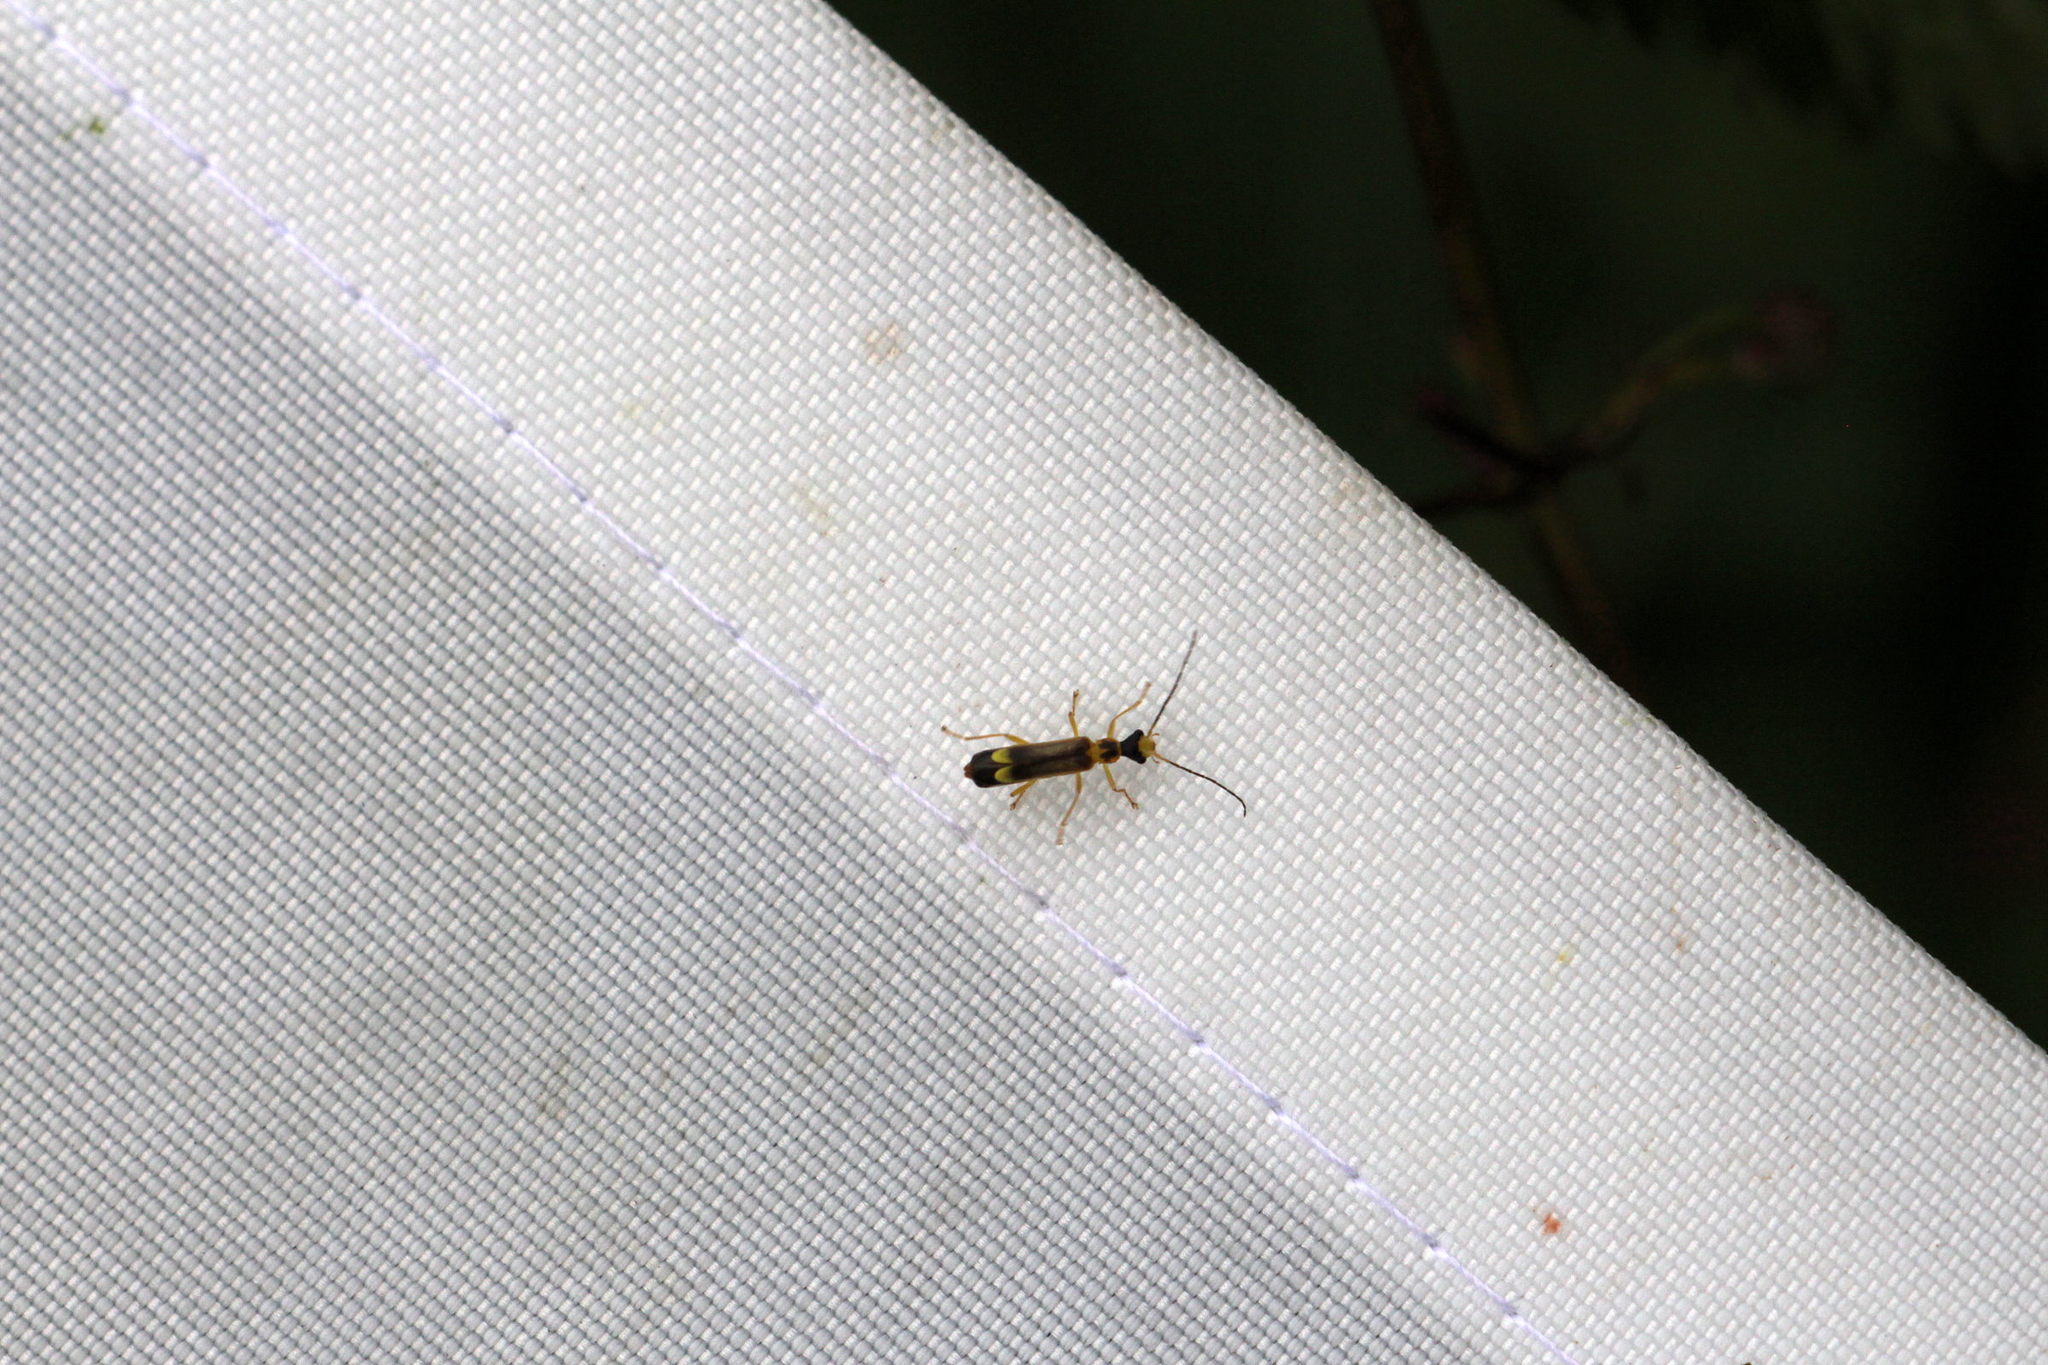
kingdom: Animalia
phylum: Arthropoda
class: Insecta
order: Coleoptera
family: Cantharidae
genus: Malthinus
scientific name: Malthinus flaveolus
